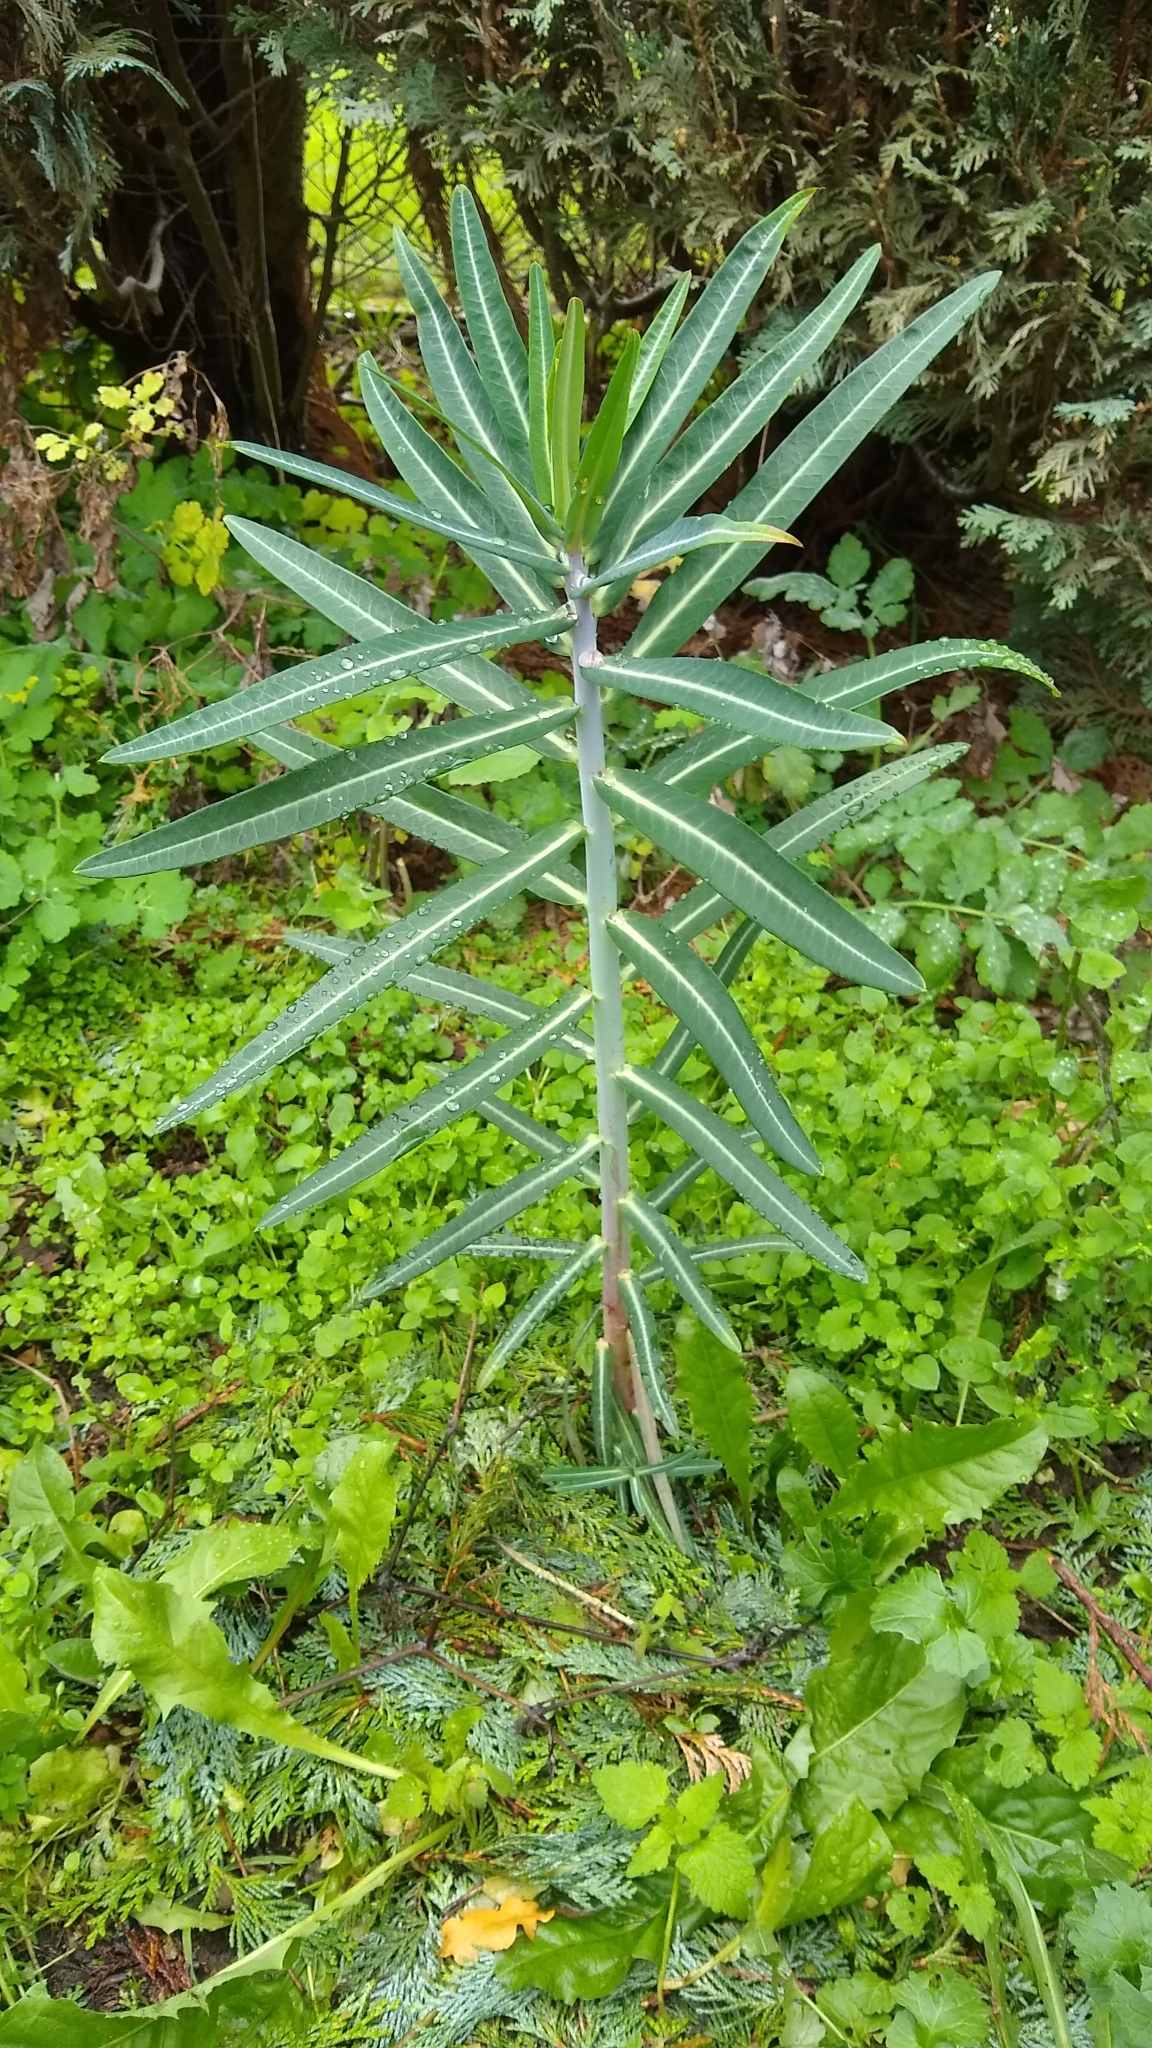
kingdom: Plantae
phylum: Tracheophyta
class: Magnoliopsida
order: Malpighiales
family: Euphorbiaceae
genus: Euphorbia
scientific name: Euphorbia lathyris
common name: Caper spurge
